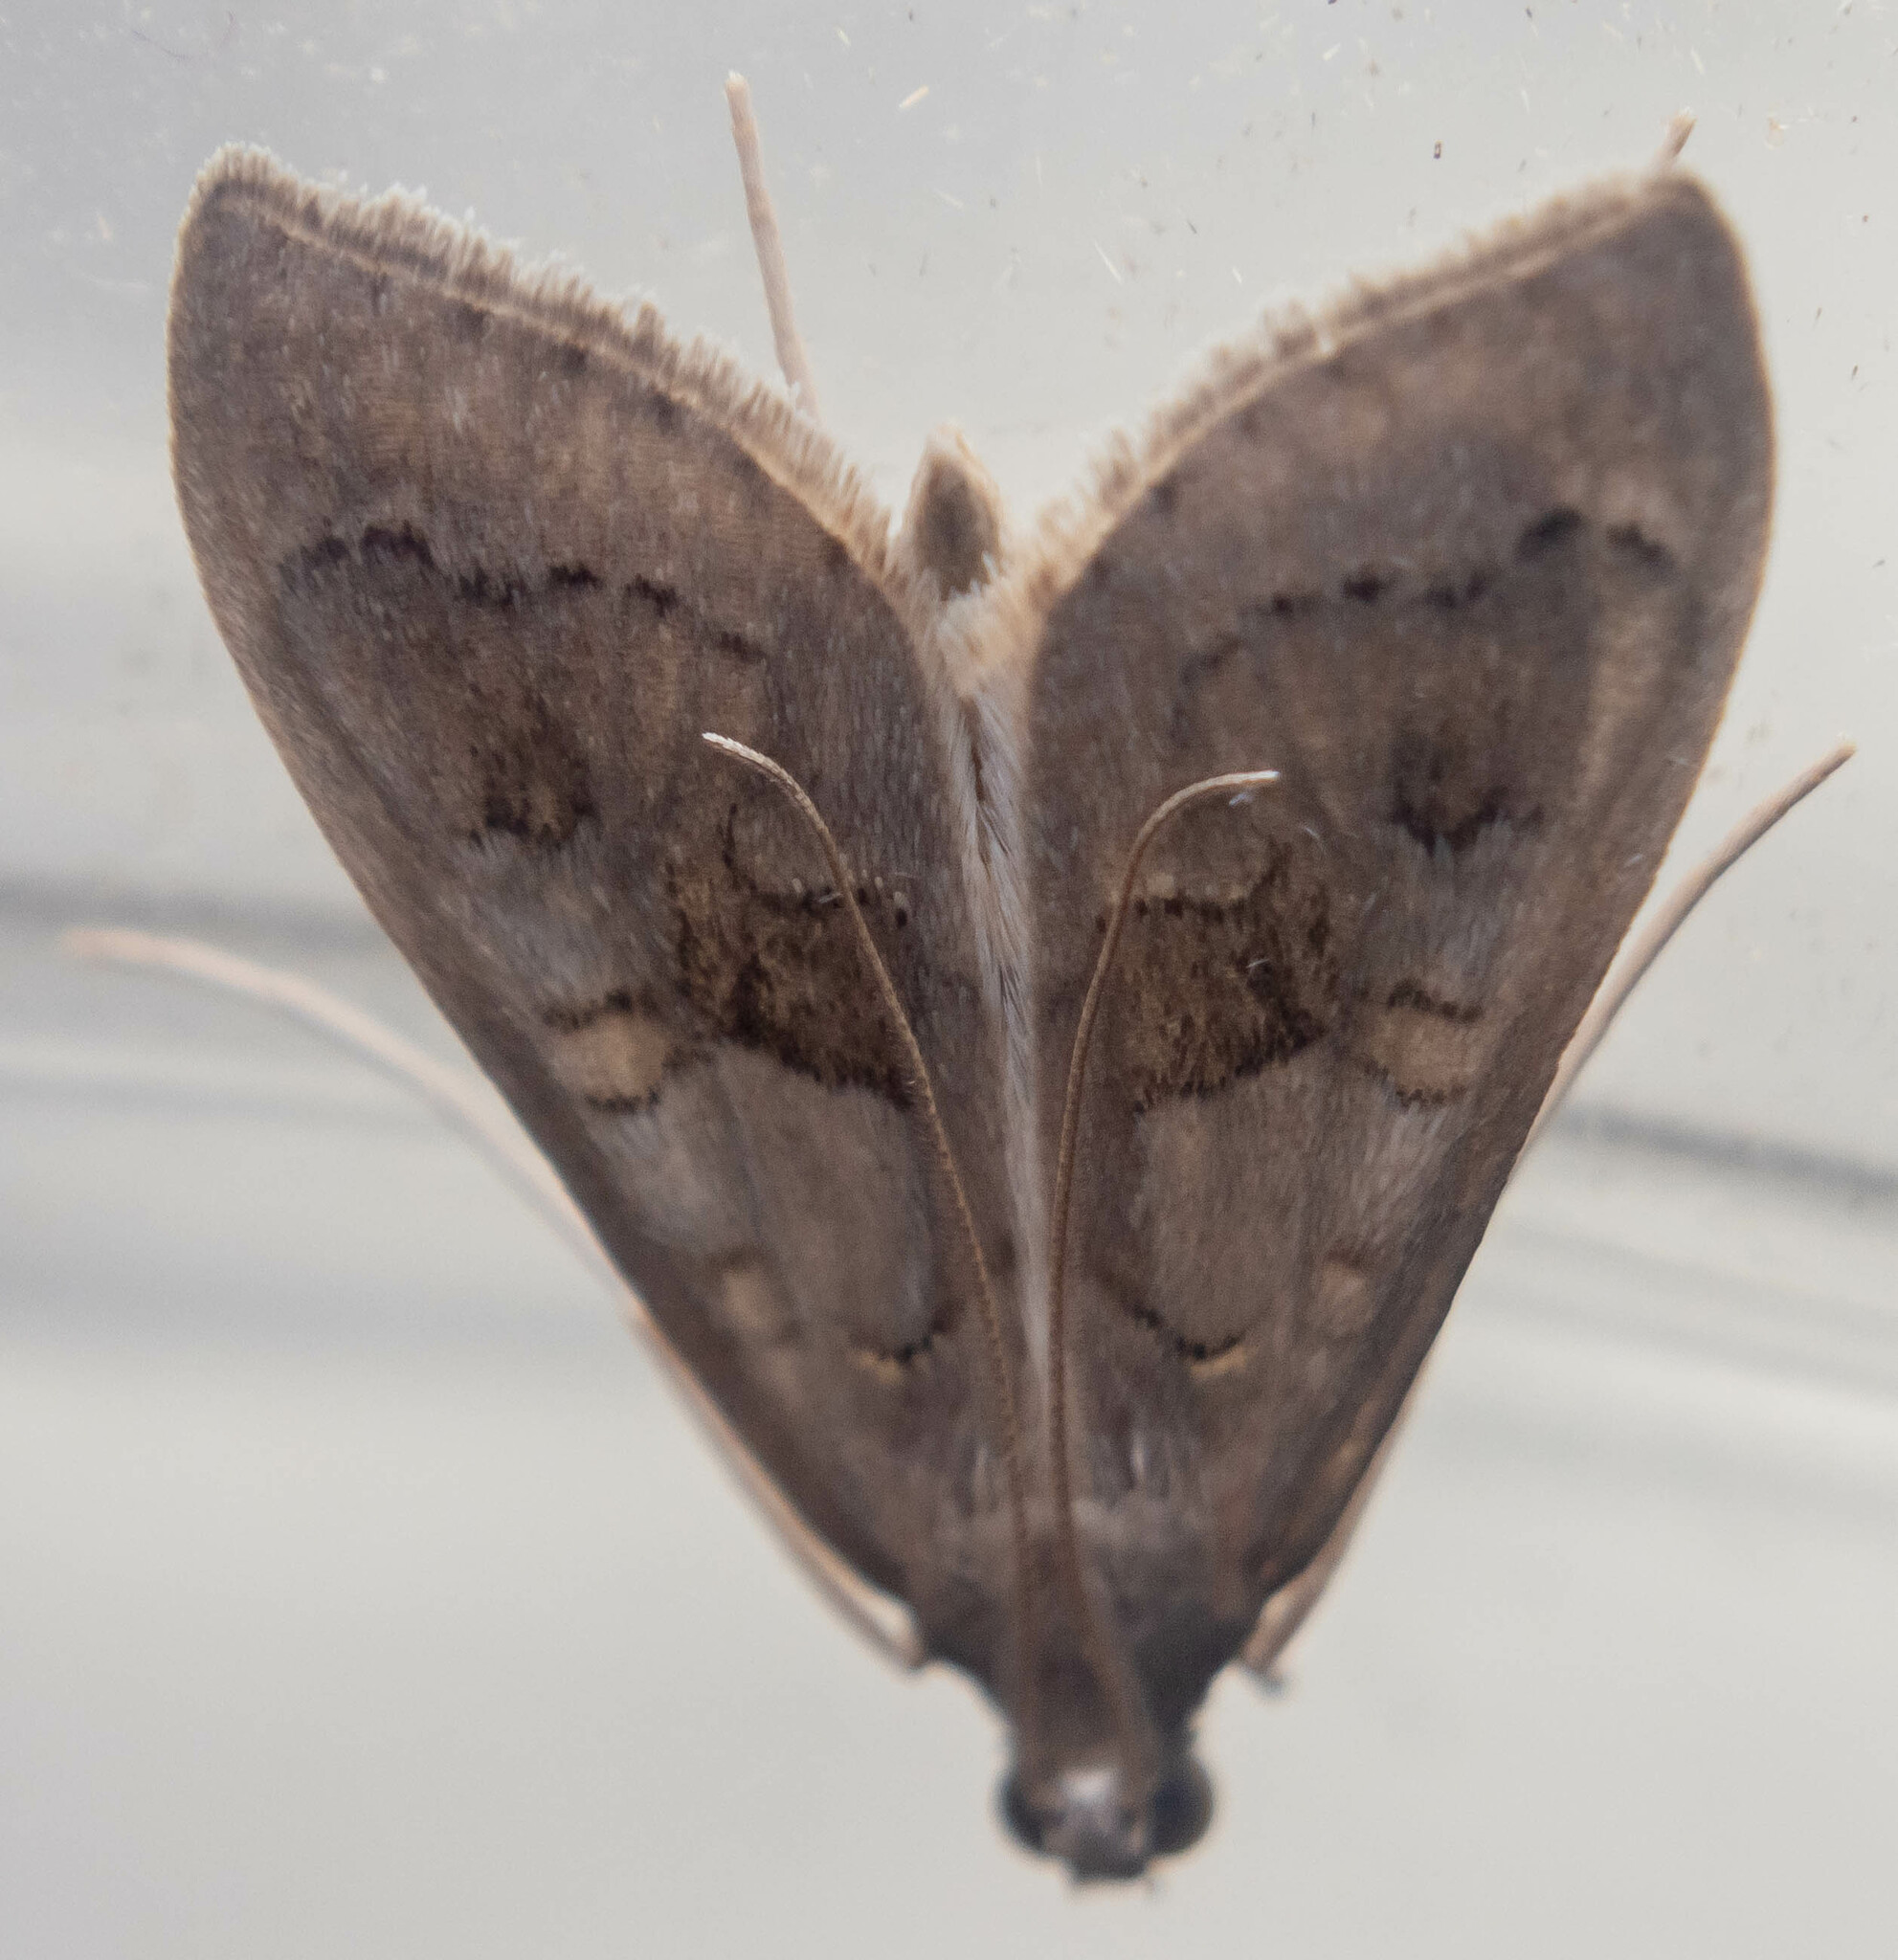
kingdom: Animalia
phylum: Arthropoda
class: Insecta
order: Lepidoptera
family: Crambidae
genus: Mecyna
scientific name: Mecyna asinalis
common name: Coastal pearl
